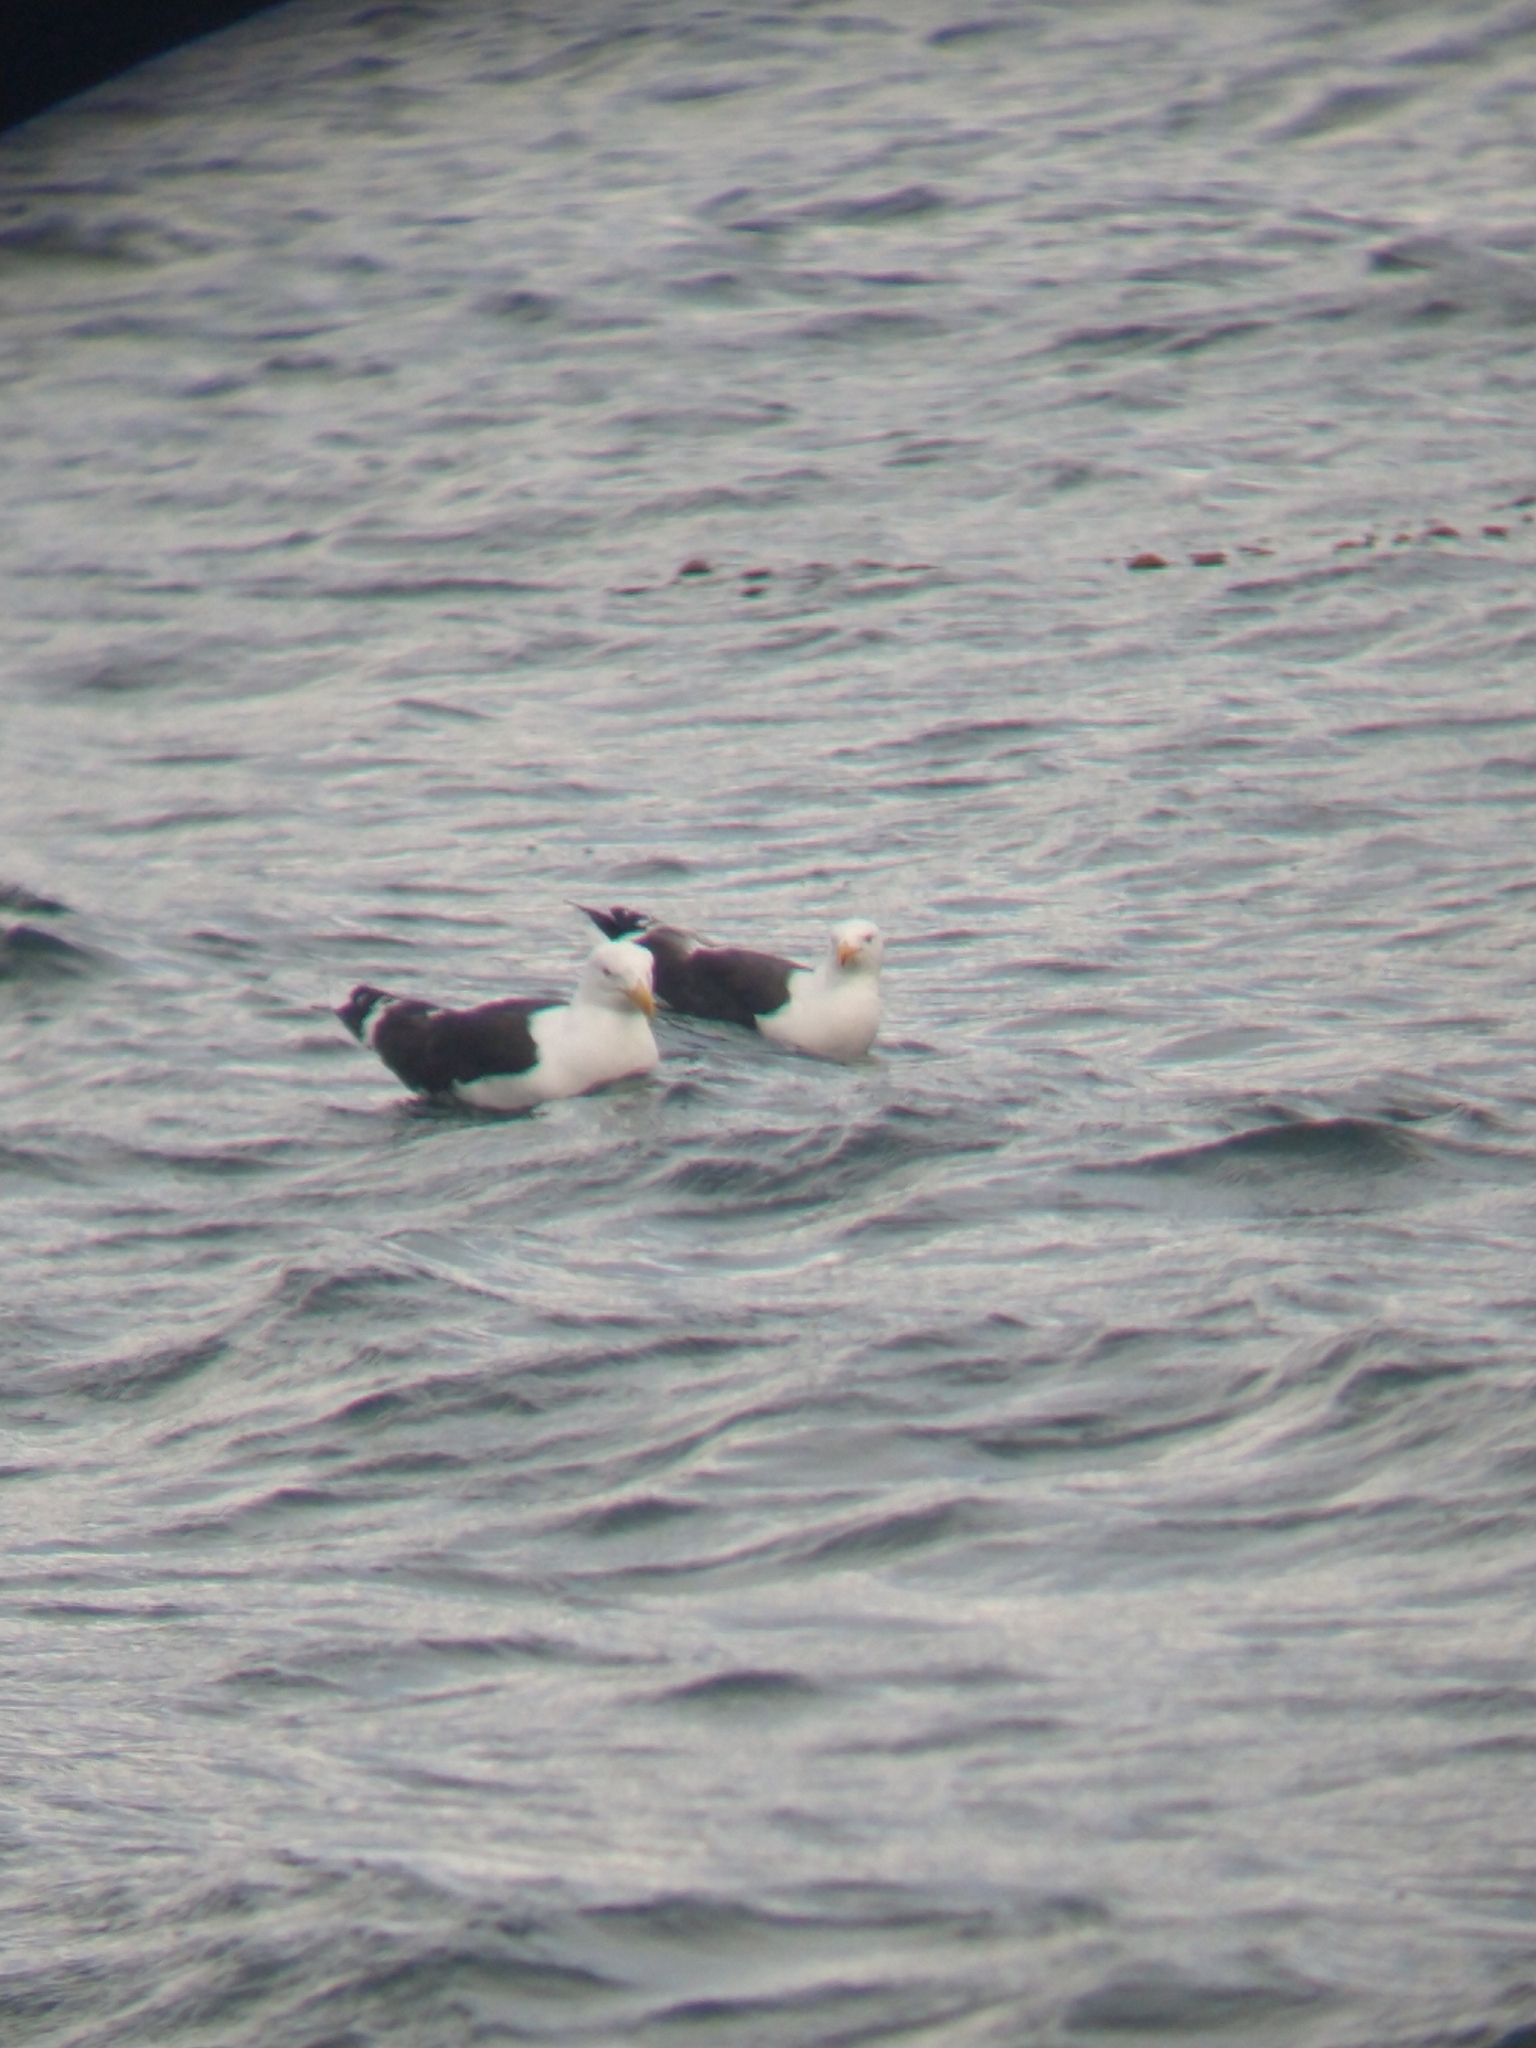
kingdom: Animalia
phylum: Chordata
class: Aves
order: Charadriiformes
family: Laridae
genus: Larus
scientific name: Larus dominicanus
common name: Kelp gull
